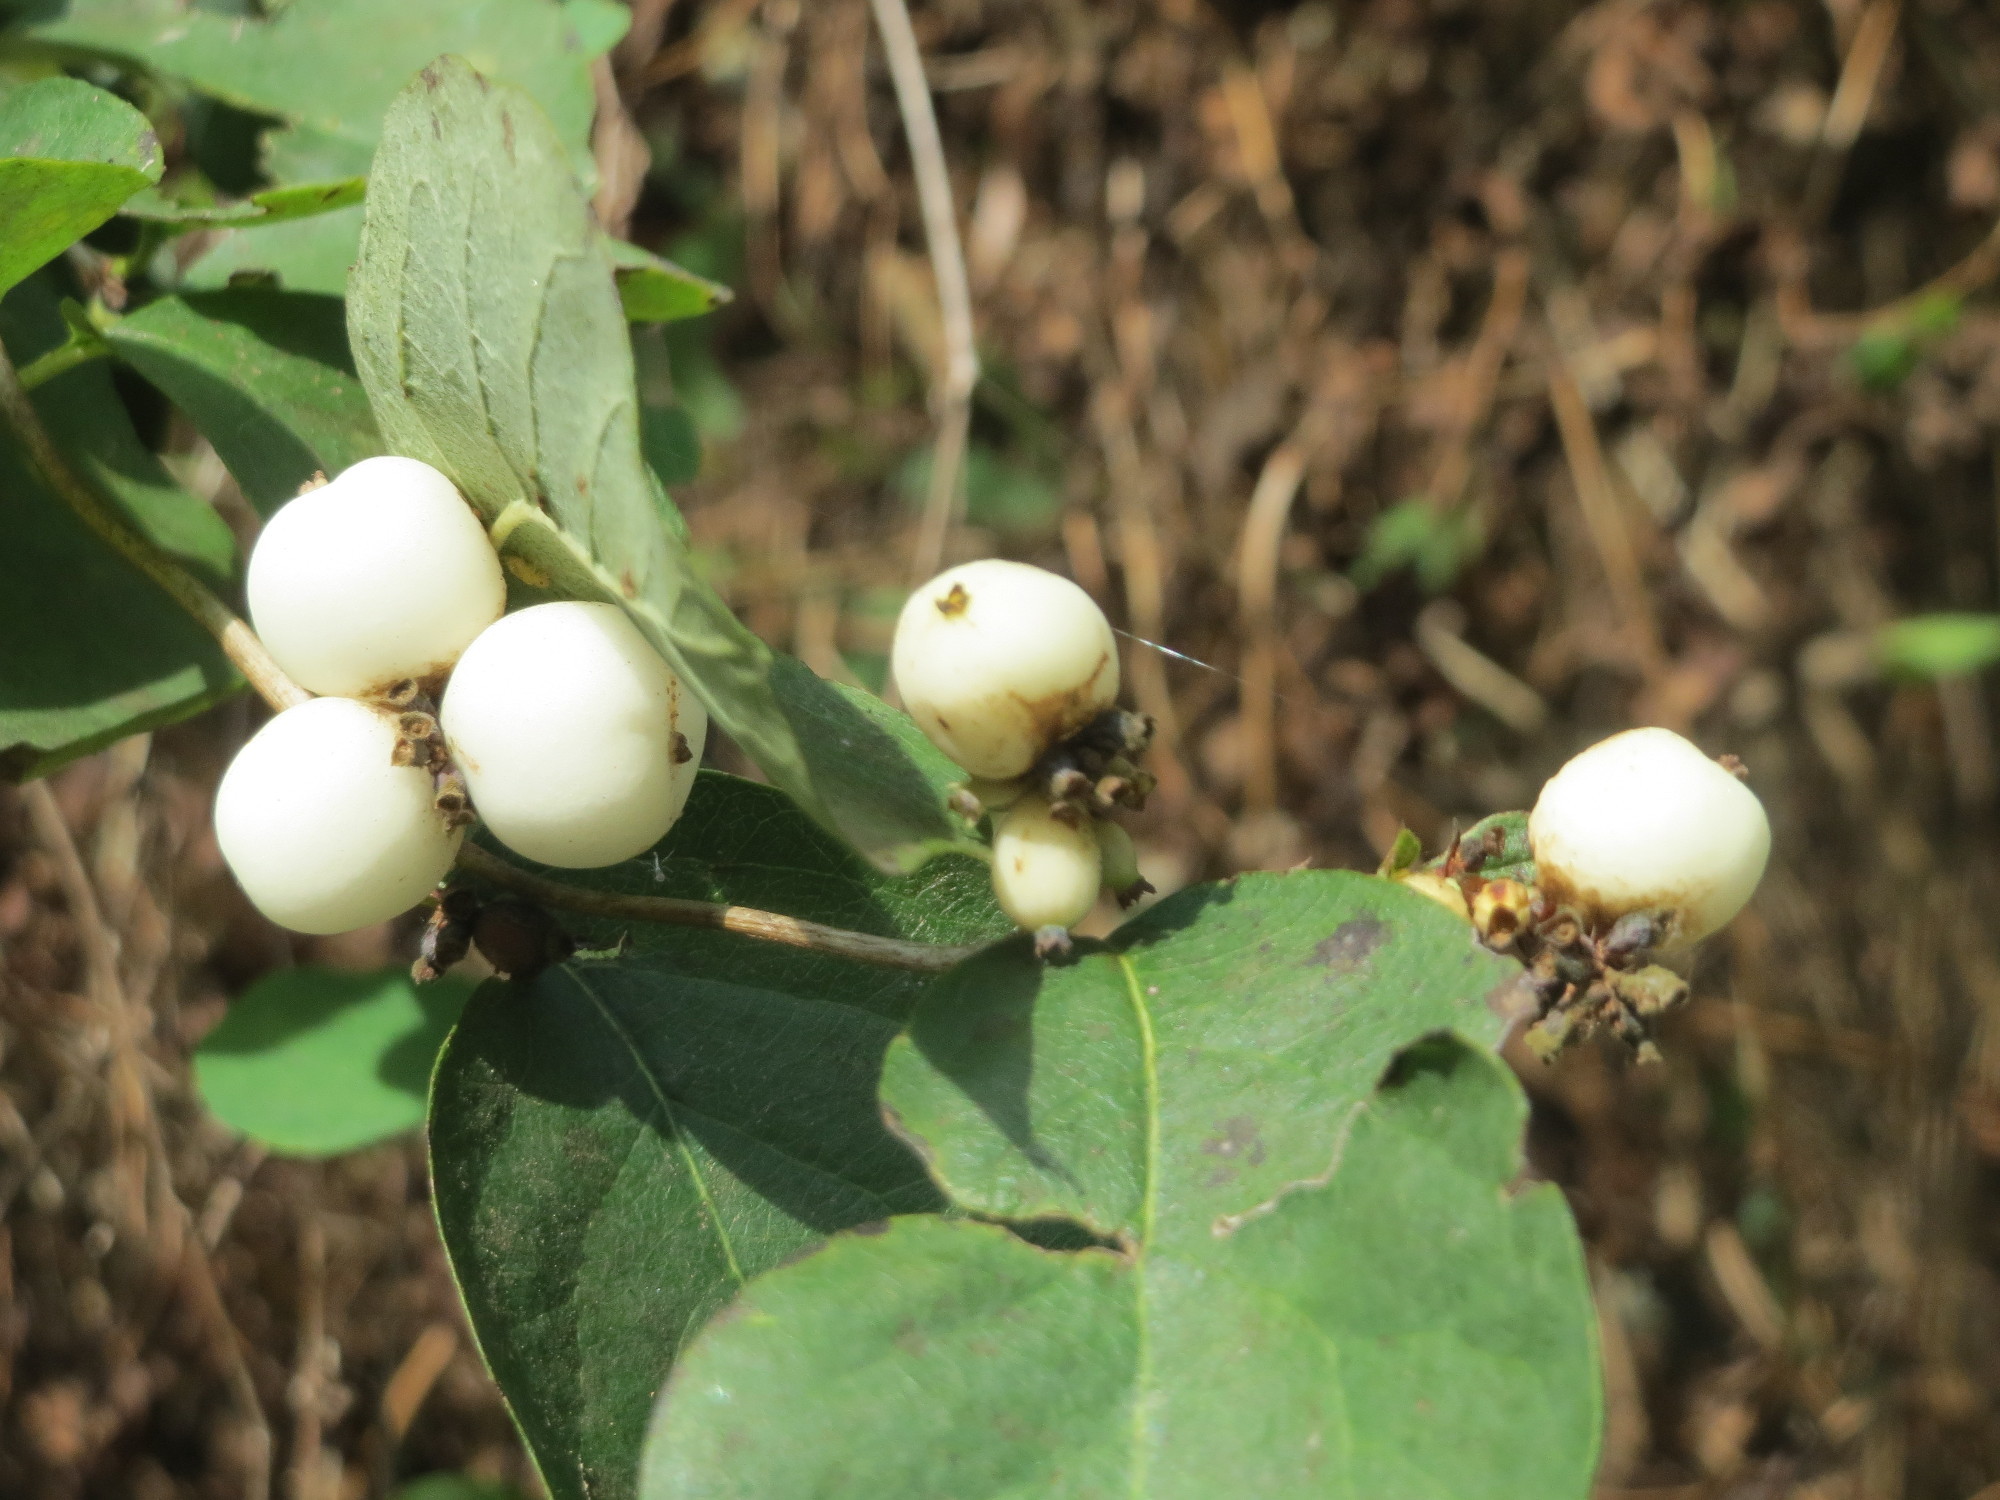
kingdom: Plantae
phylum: Tracheophyta
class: Magnoliopsida
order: Dipsacales
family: Caprifoliaceae
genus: Symphoricarpos
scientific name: Symphoricarpos albus
